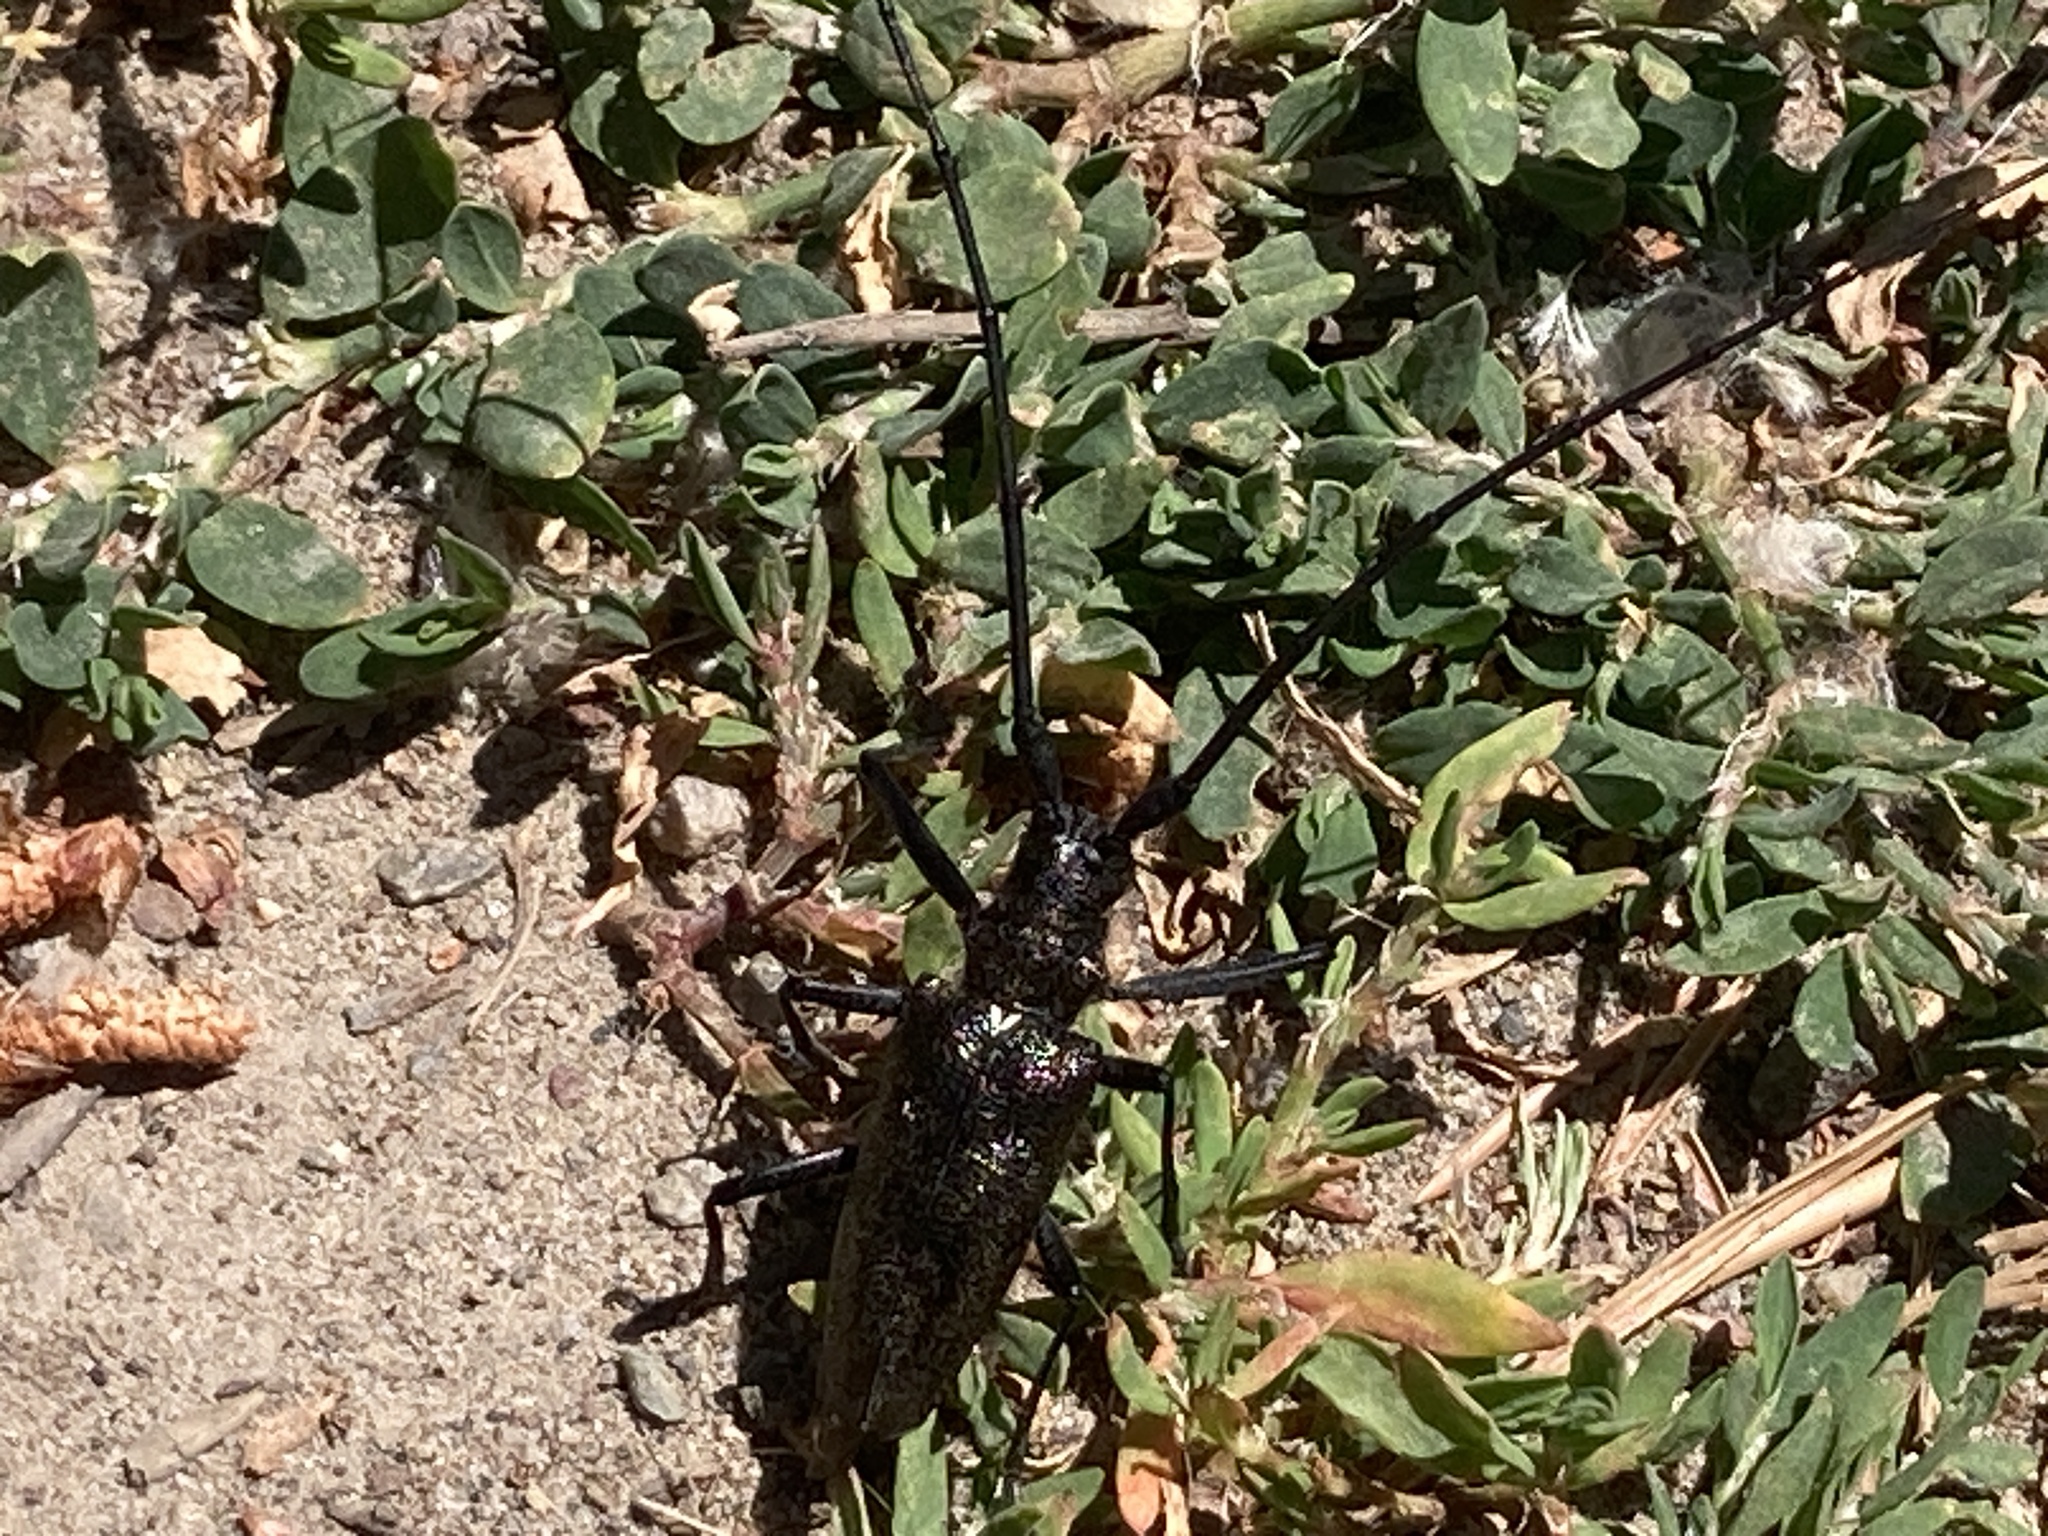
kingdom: Animalia
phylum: Arthropoda
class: Insecta
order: Coleoptera
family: Cerambycidae
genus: Monochamus
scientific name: Monochamus scutellatus
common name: White-spotted sawyer beetle
